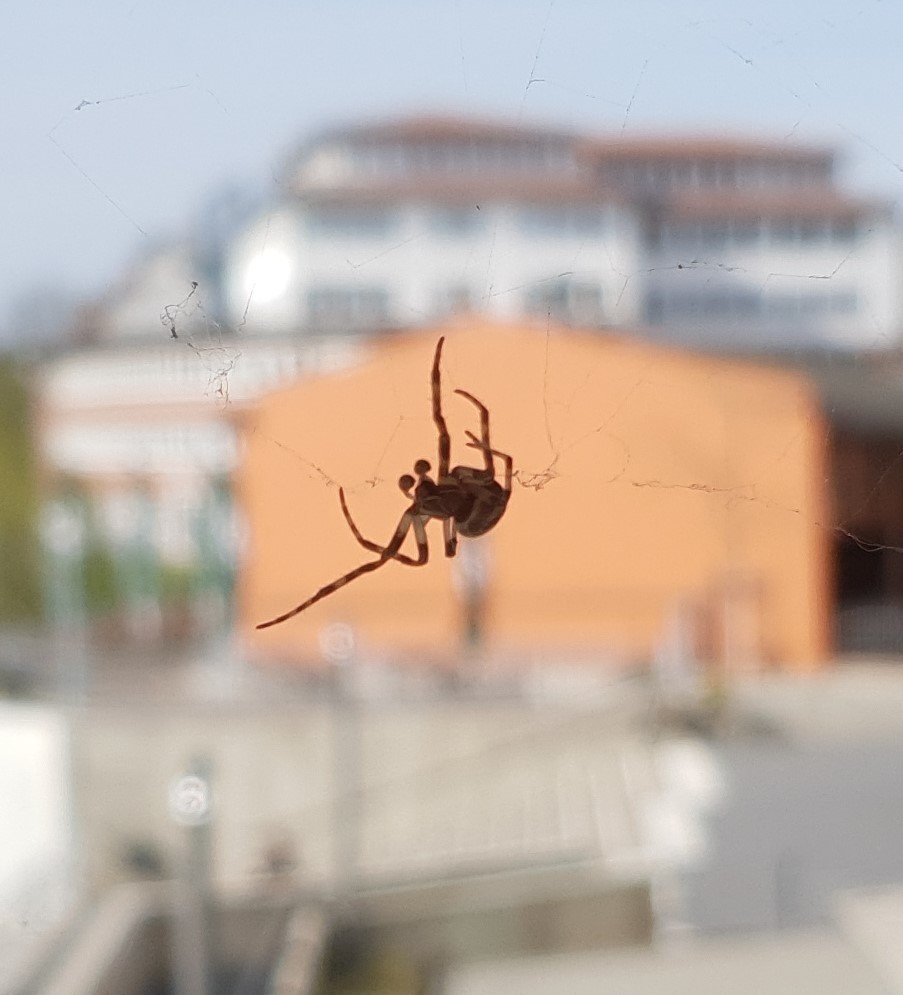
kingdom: Animalia
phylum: Arthropoda
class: Arachnida
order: Araneae
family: Araneidae
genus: Larinioides
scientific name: Larinioides sclopetarius
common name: Bridge orbweaver
